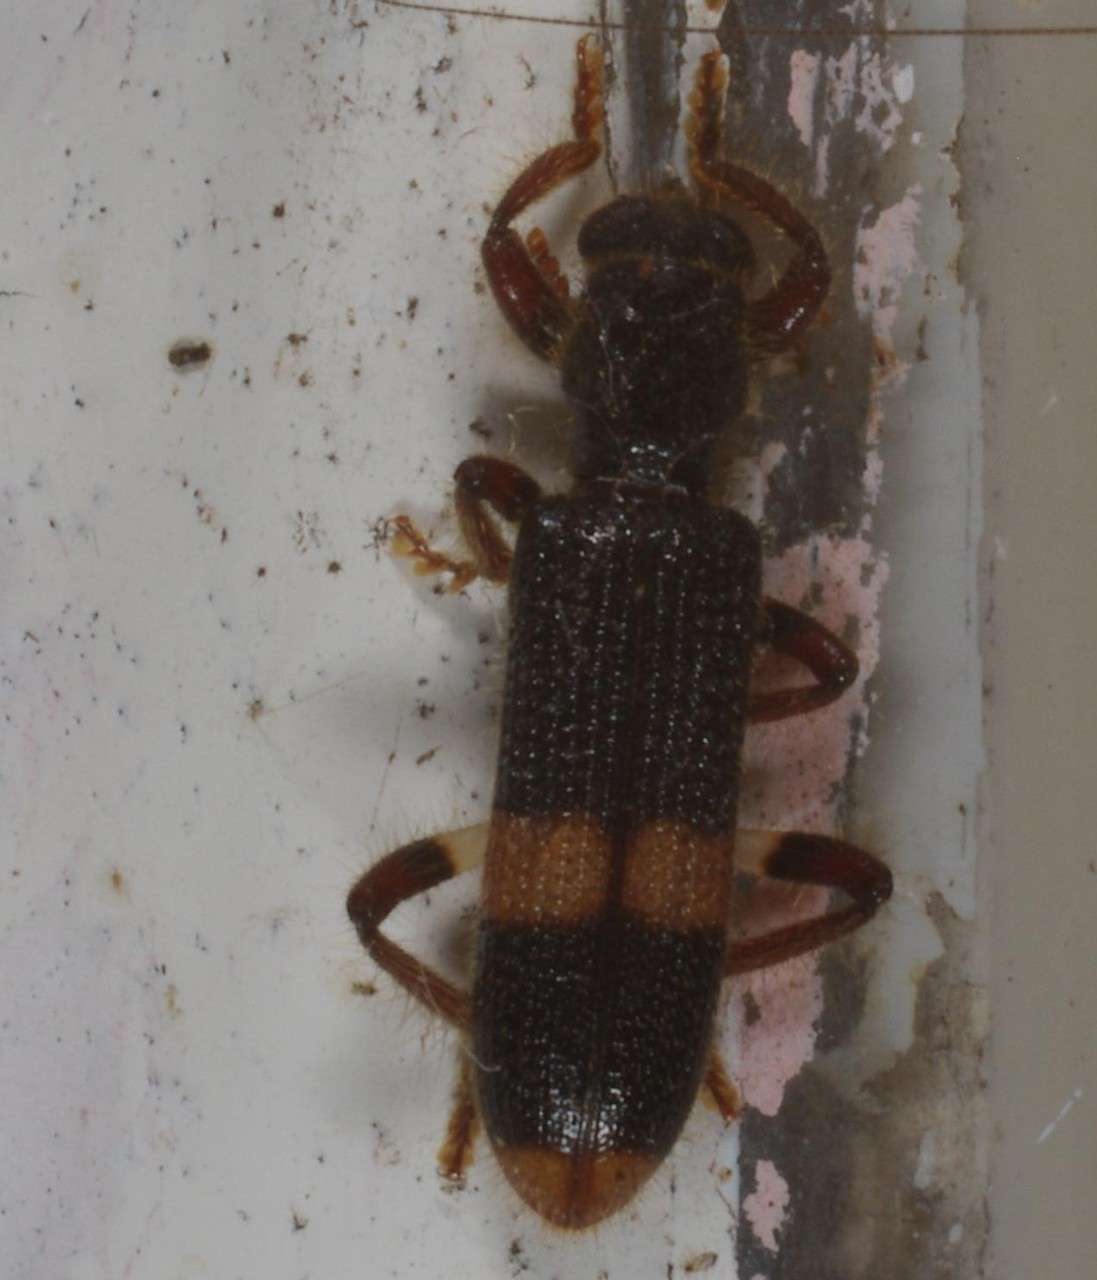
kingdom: Animalia
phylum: Arthropoda
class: Insecta
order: Coleoptera
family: Cleridae
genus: Notopilo
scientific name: Notopilo confusus
